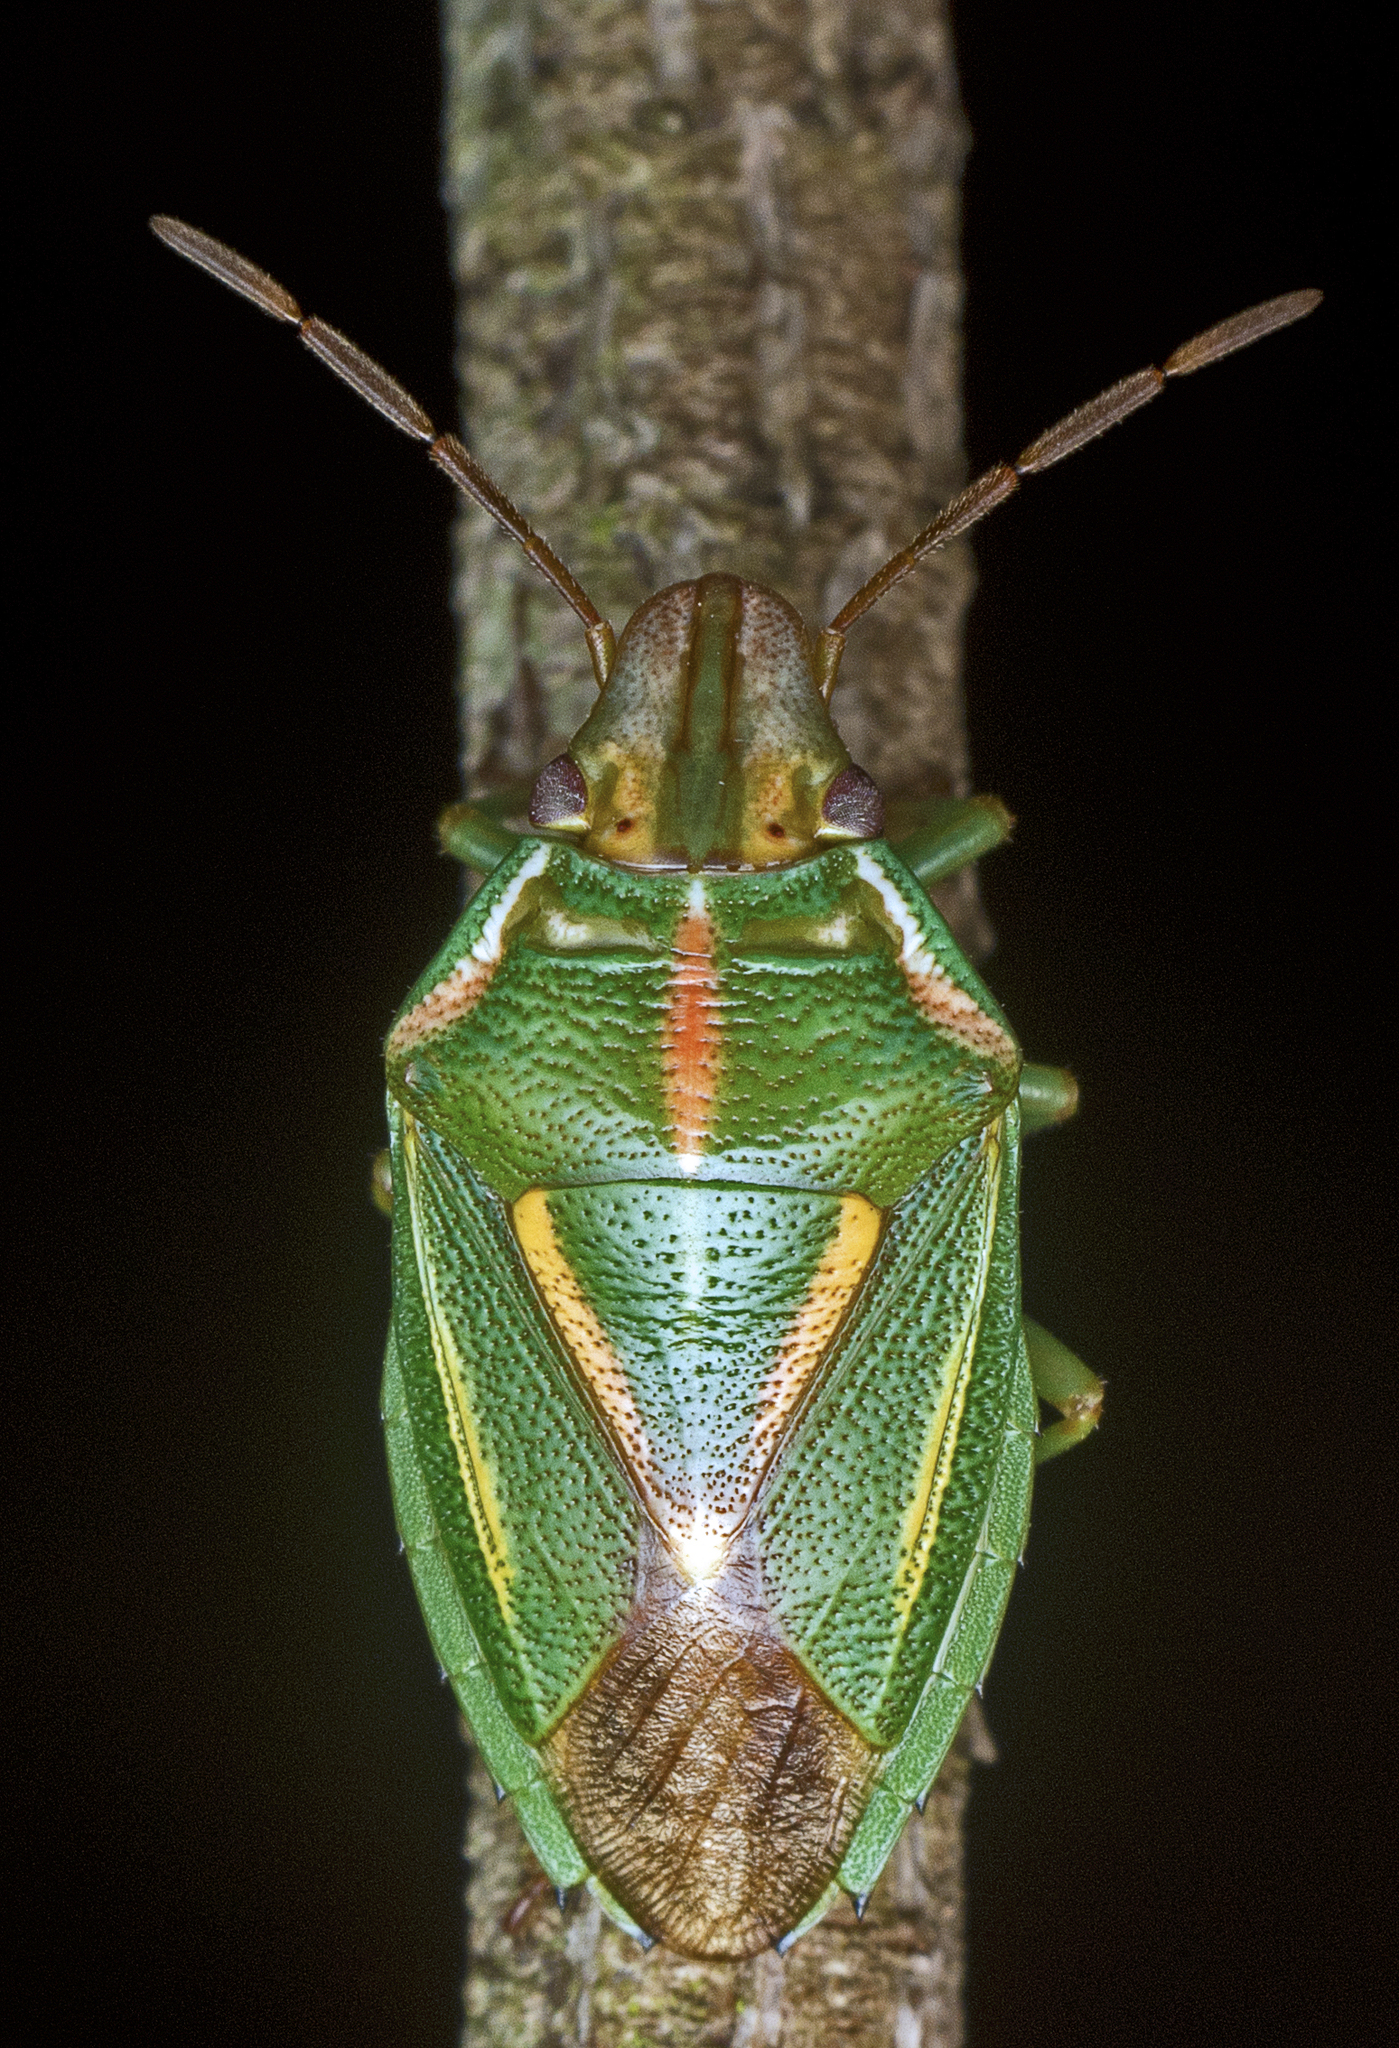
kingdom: Animalia
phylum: Arthropoda
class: Insecta
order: Hemiptera
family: Pentatomidae
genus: Diaphyta
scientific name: Diaphyta
